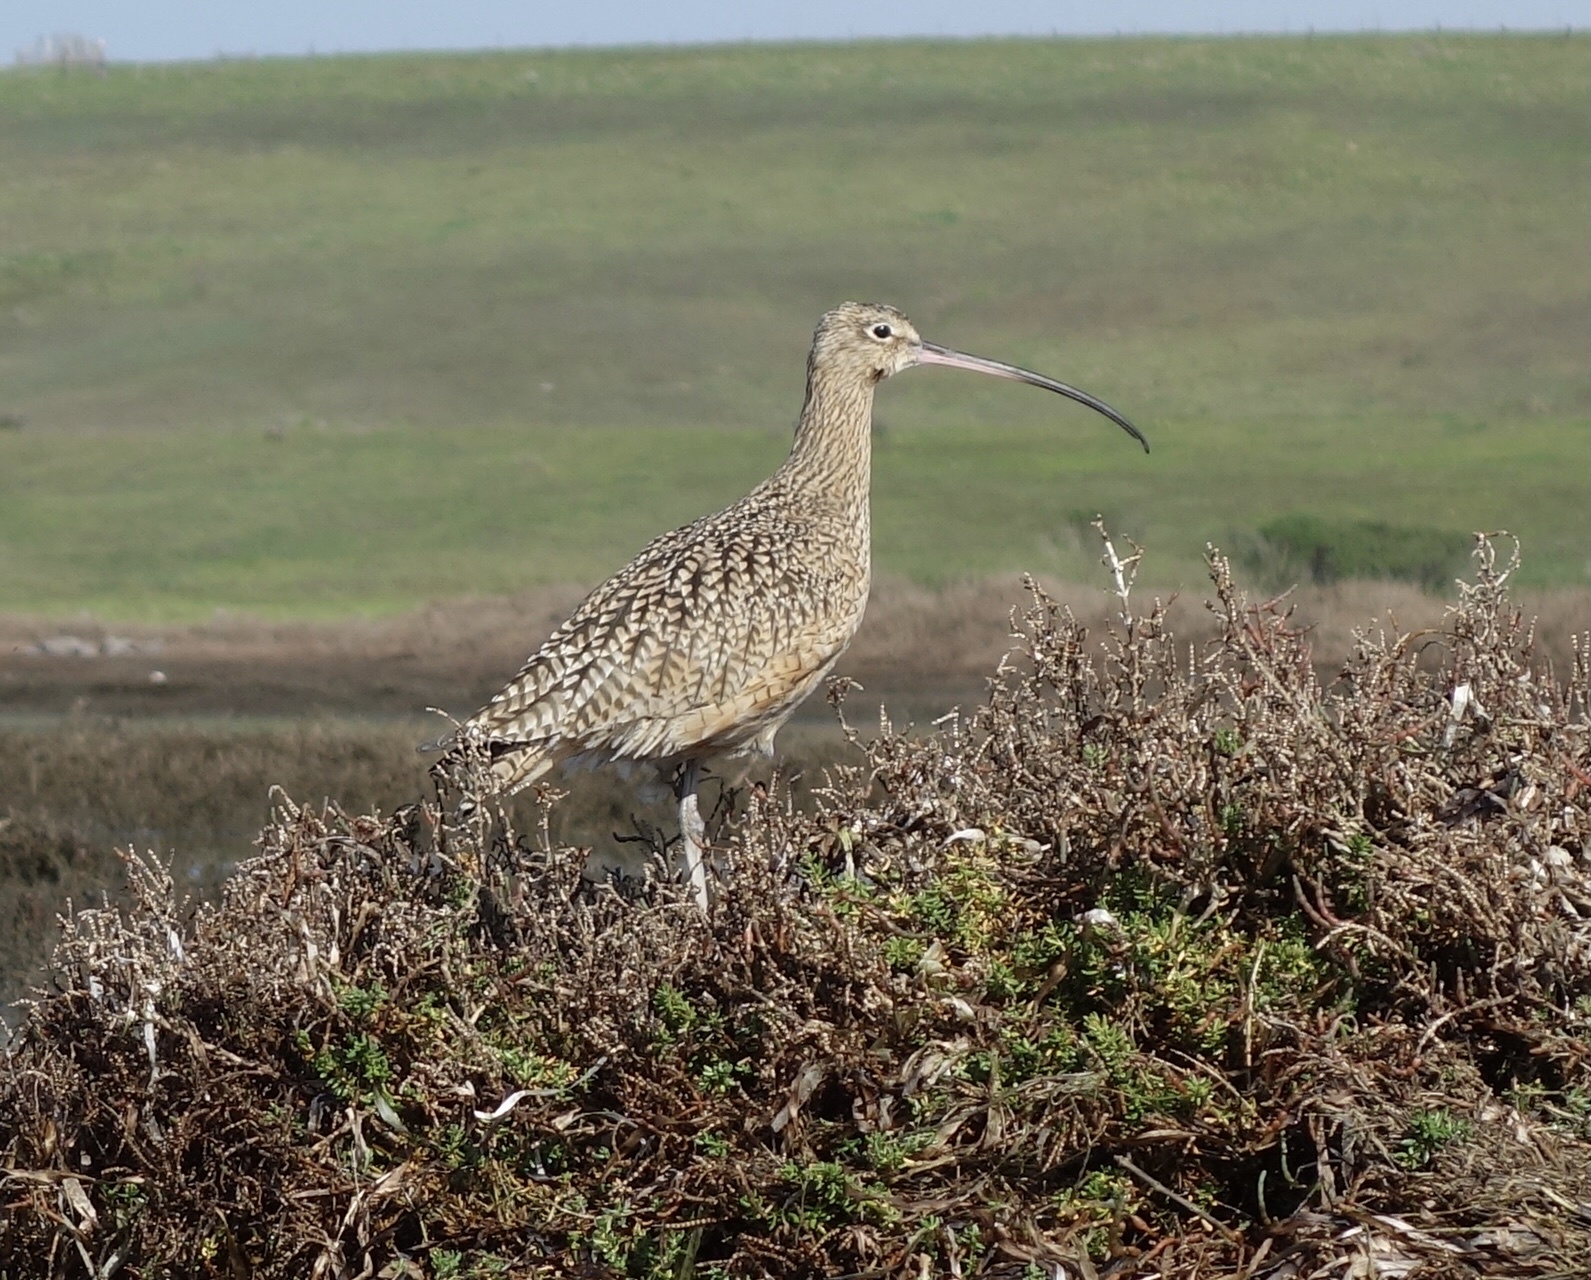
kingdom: Animalia
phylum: Chordata
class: Aves
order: Charadriiformes
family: Scolopacidae
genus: Numenius
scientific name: Numenius americanus
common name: Long-billed curlew
